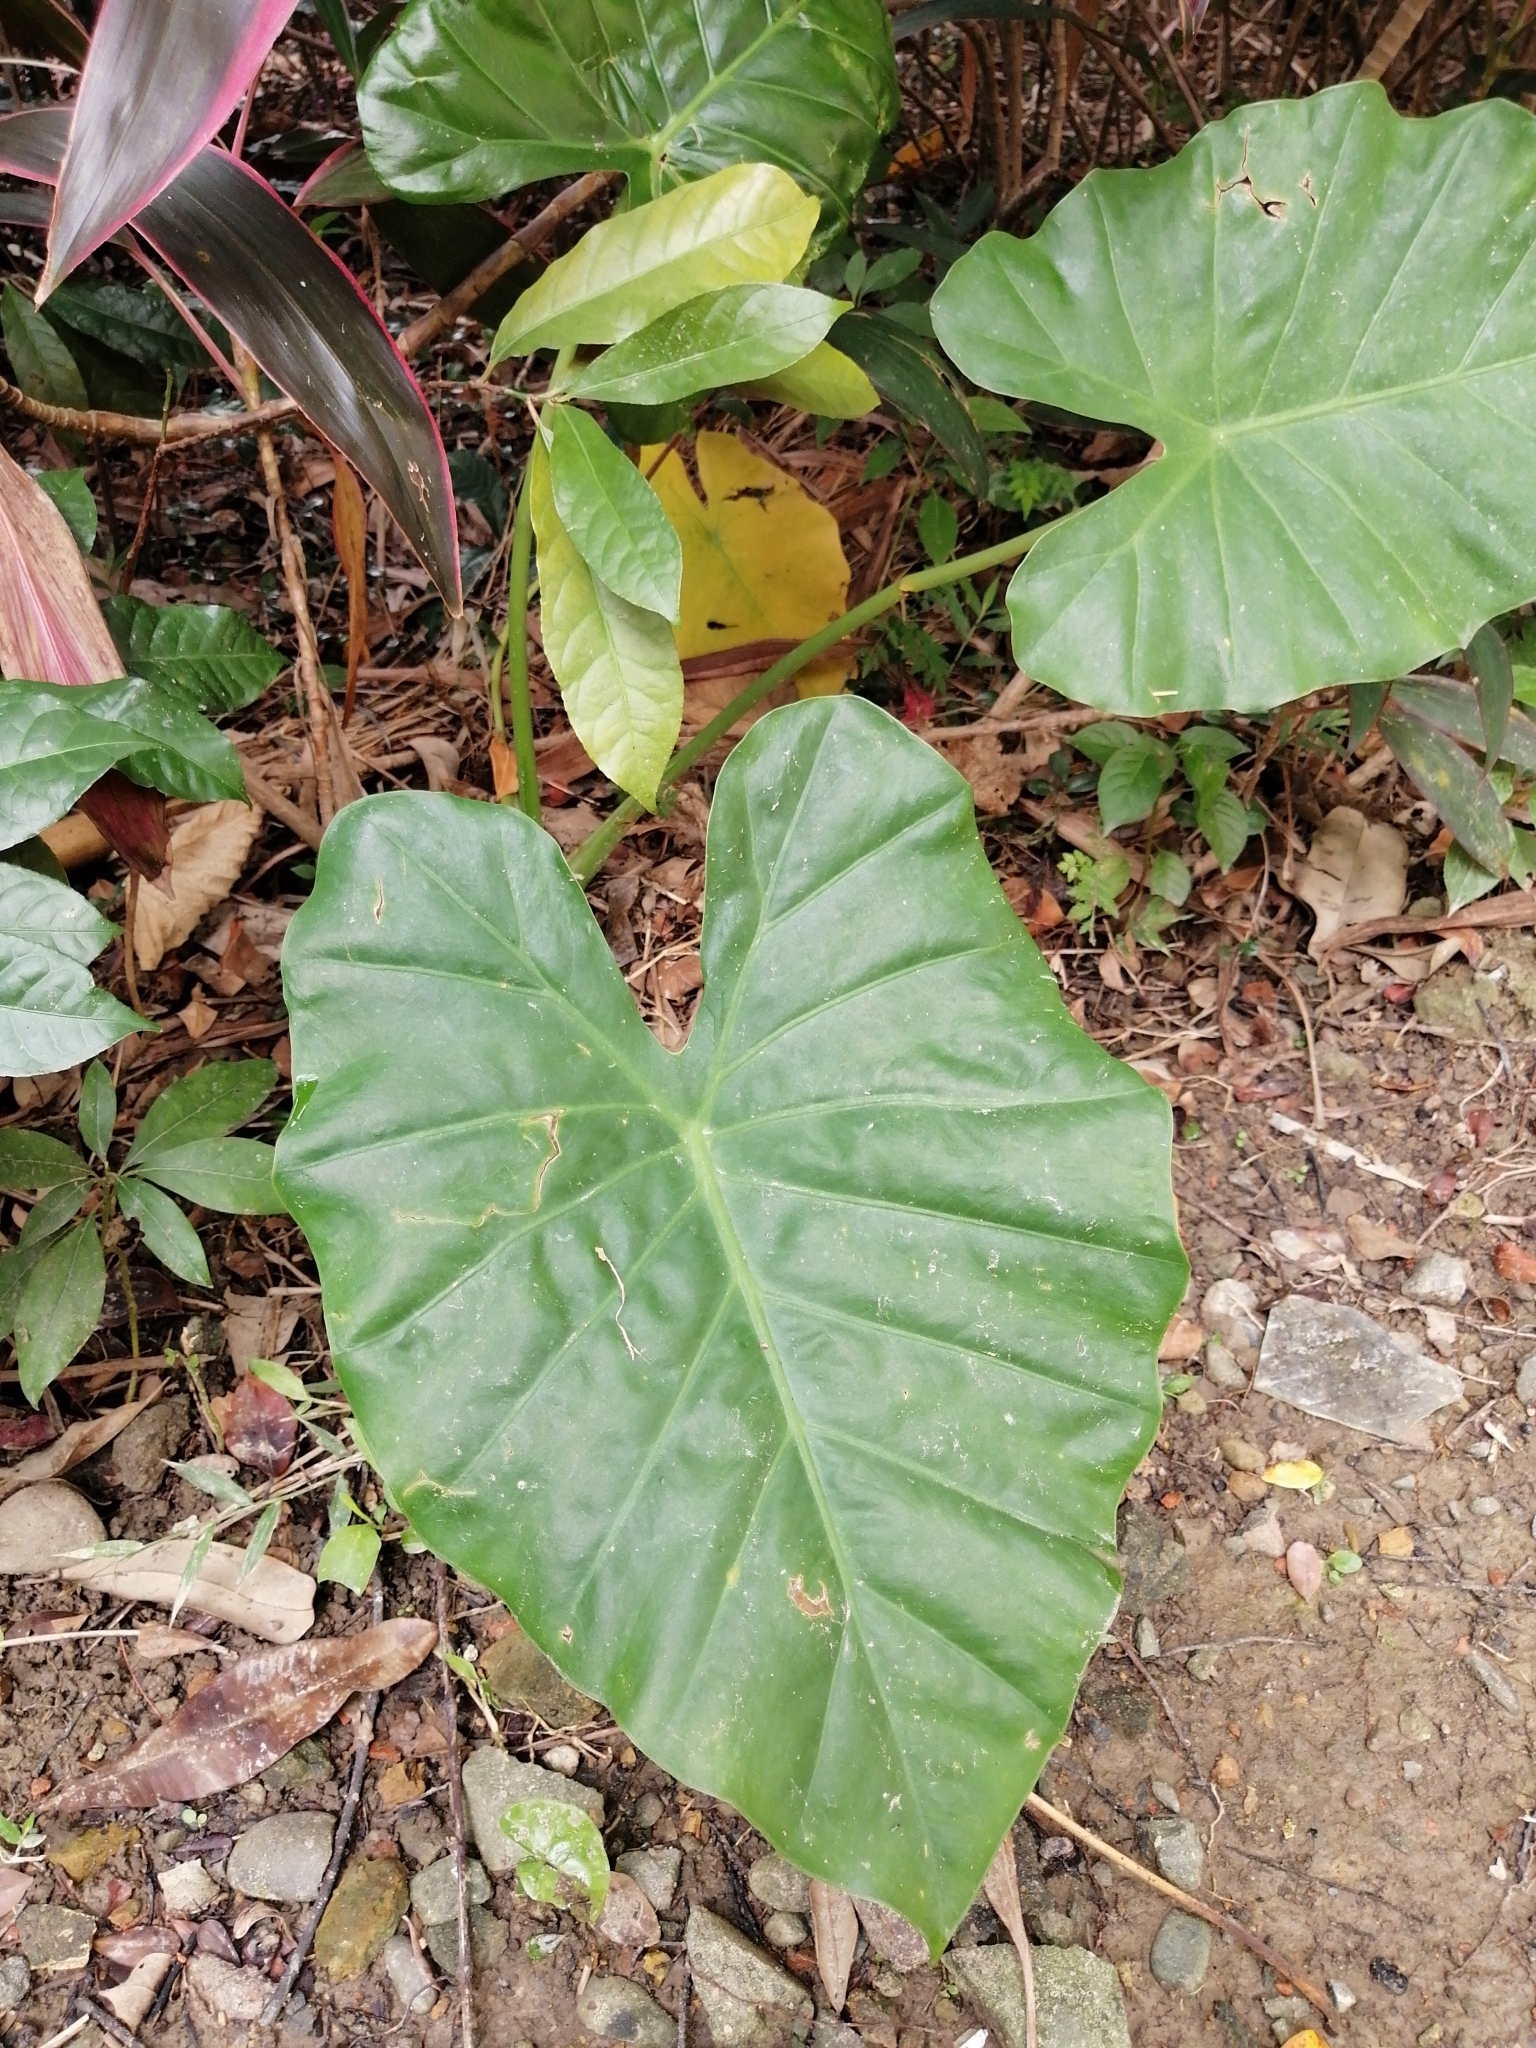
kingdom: Plantae
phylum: Tracheophyta
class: Liliopsida
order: Alismatales
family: Araceae
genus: Alocasia
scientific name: Alocasia odora
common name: Asian taro
